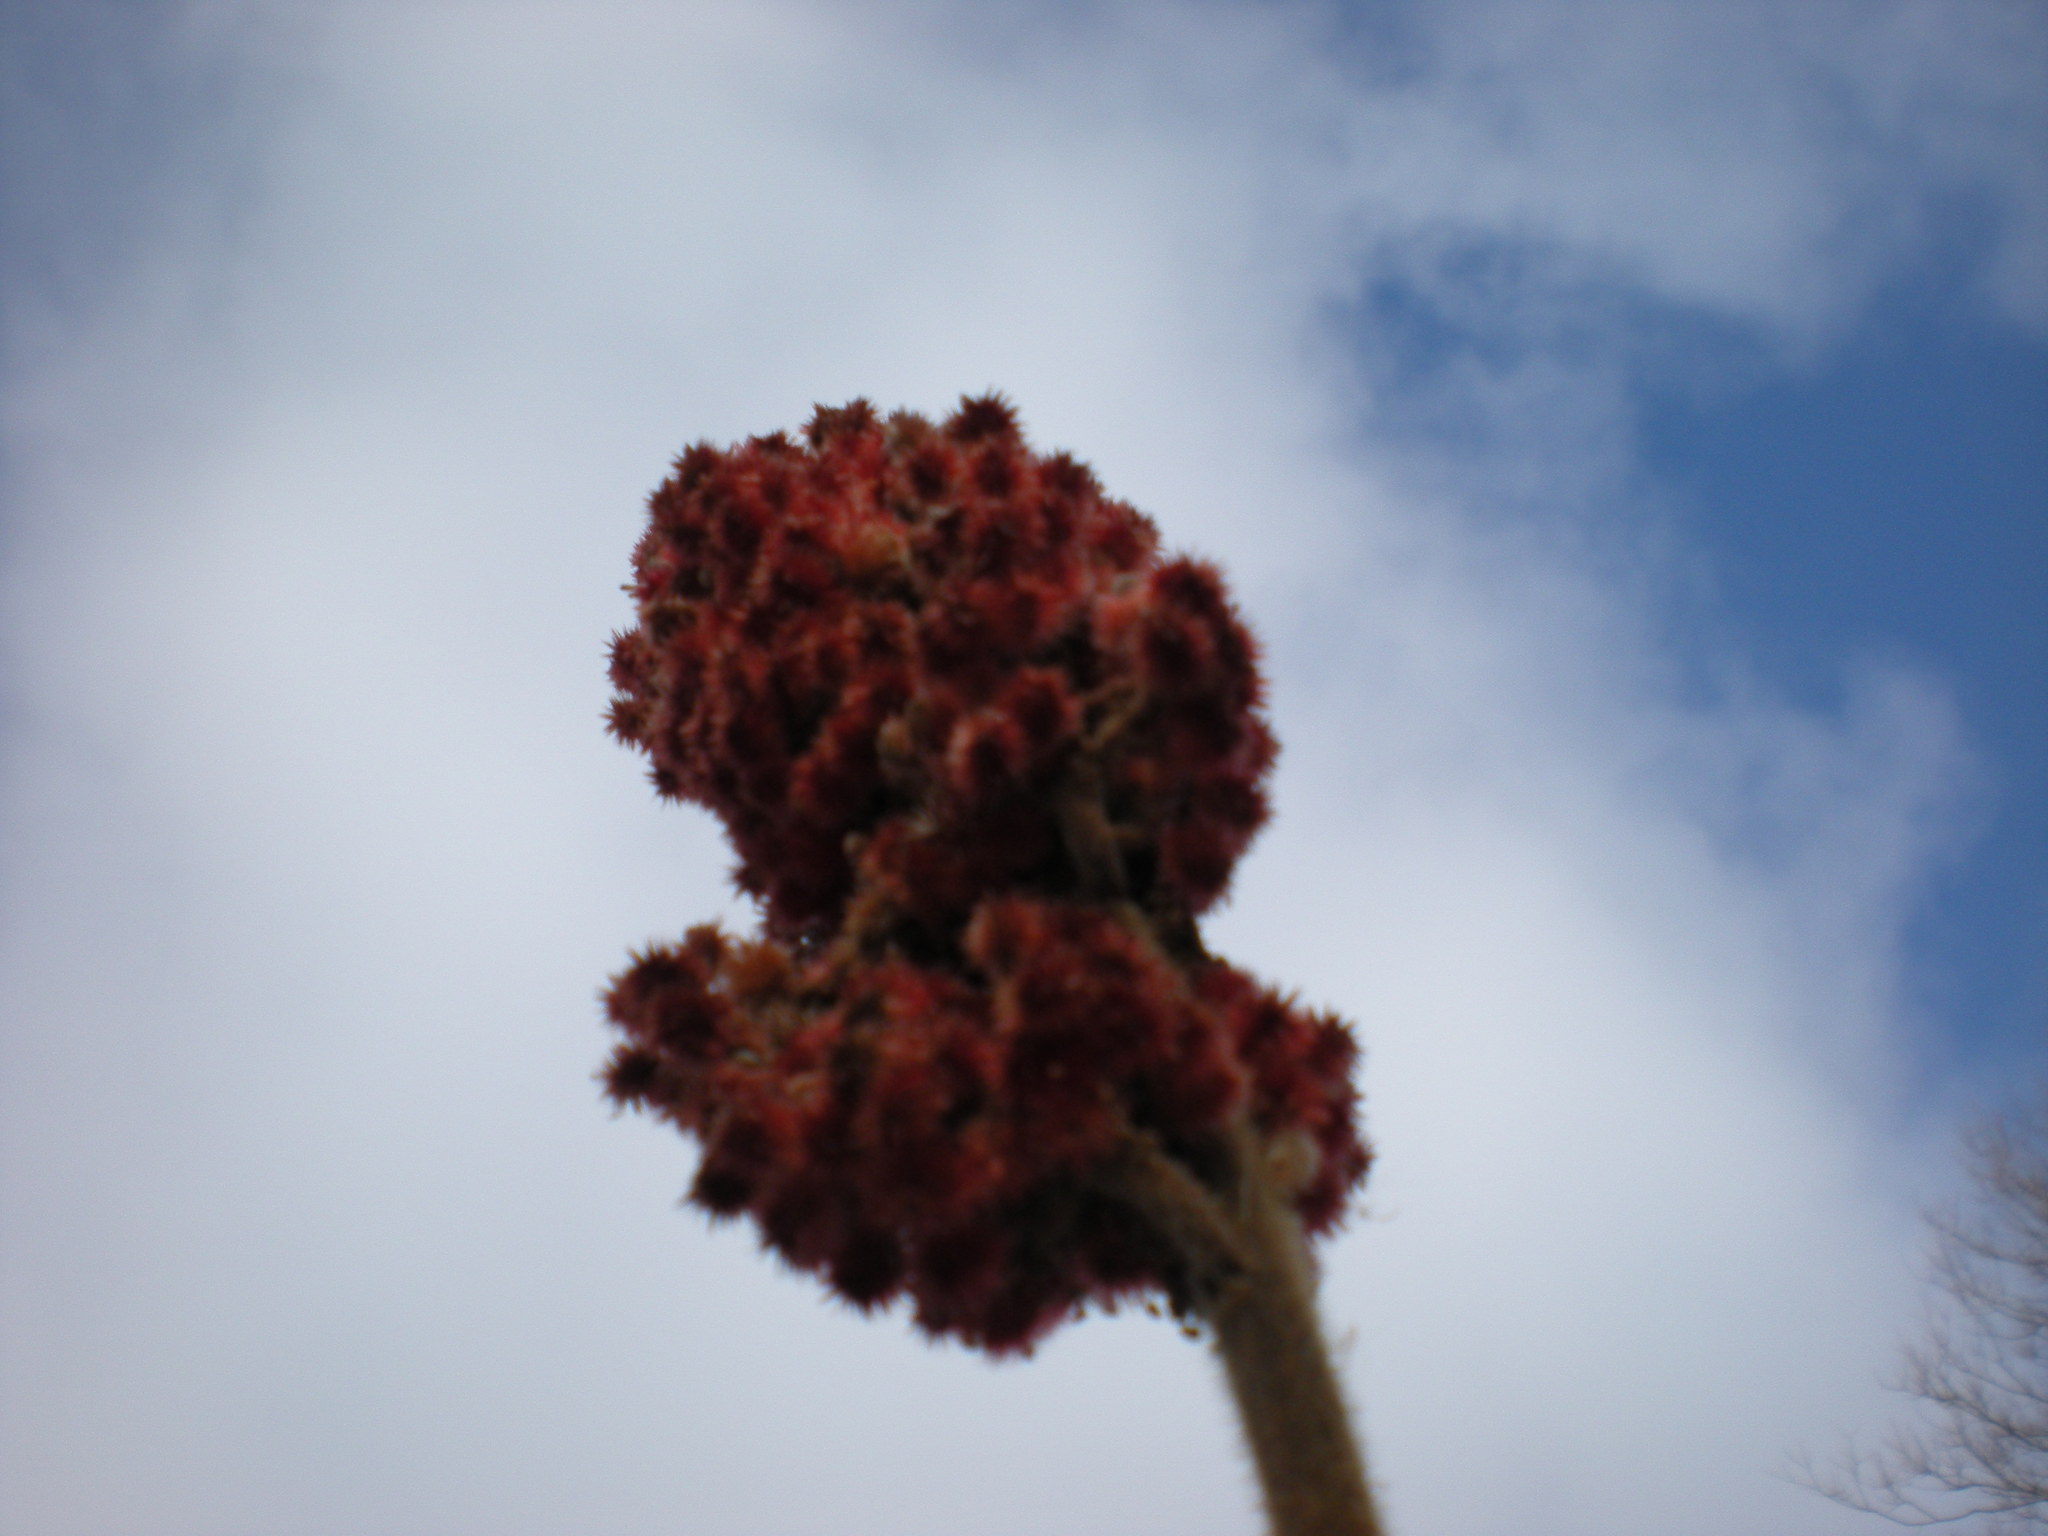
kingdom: Plantae
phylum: Tracheophyta
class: Magnoliopsida
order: Sapindales
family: Anacardiaceae
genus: Rhus
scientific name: Rhus typhina
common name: Staghorn sumac
